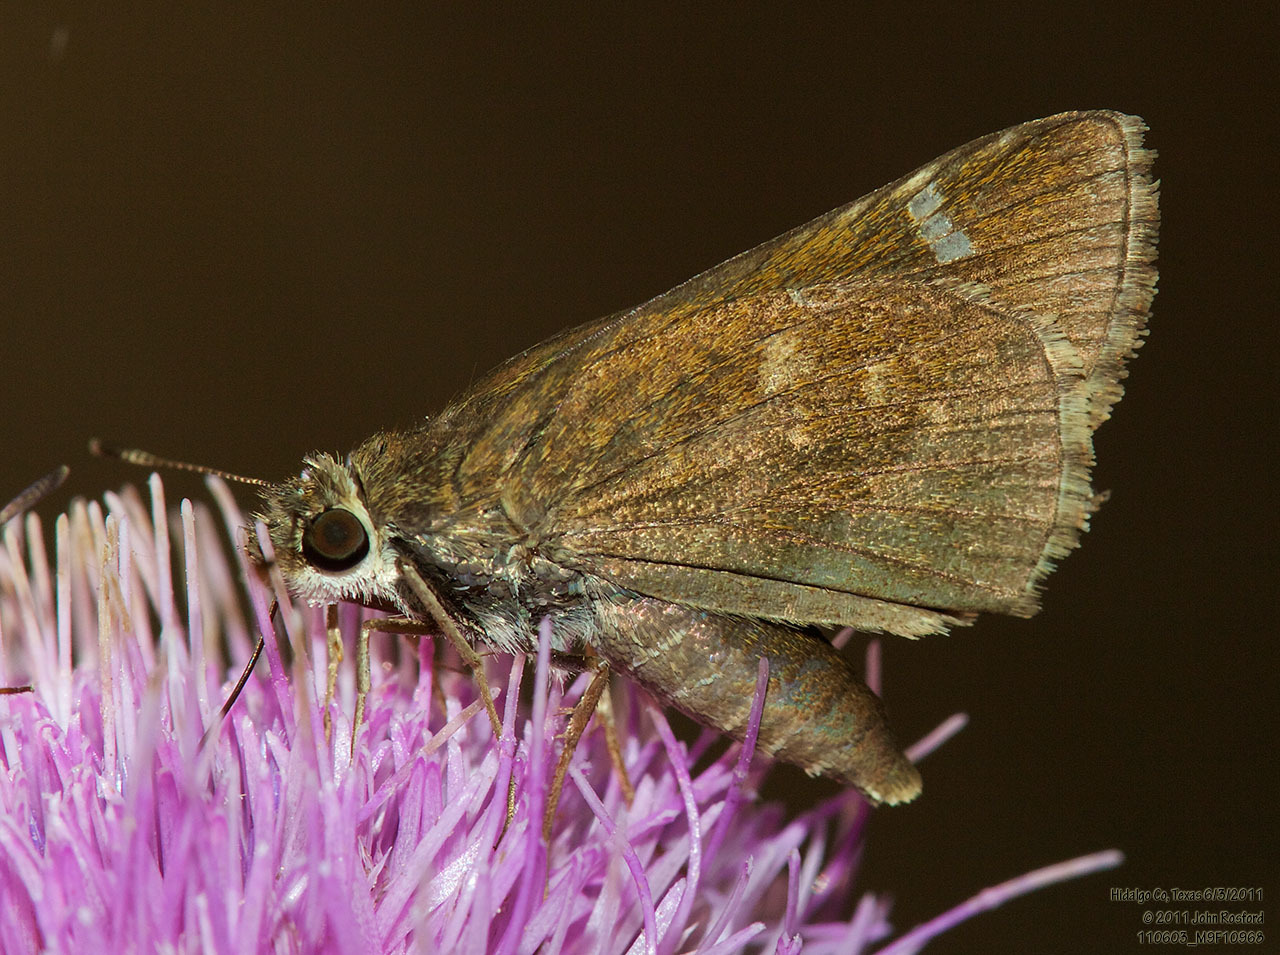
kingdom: Animalia
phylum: Arthropoda
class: Insecta
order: Lepidoptera
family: Hesperiidae
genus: Lerema
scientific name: Lerema accius
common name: Clouded skipper
